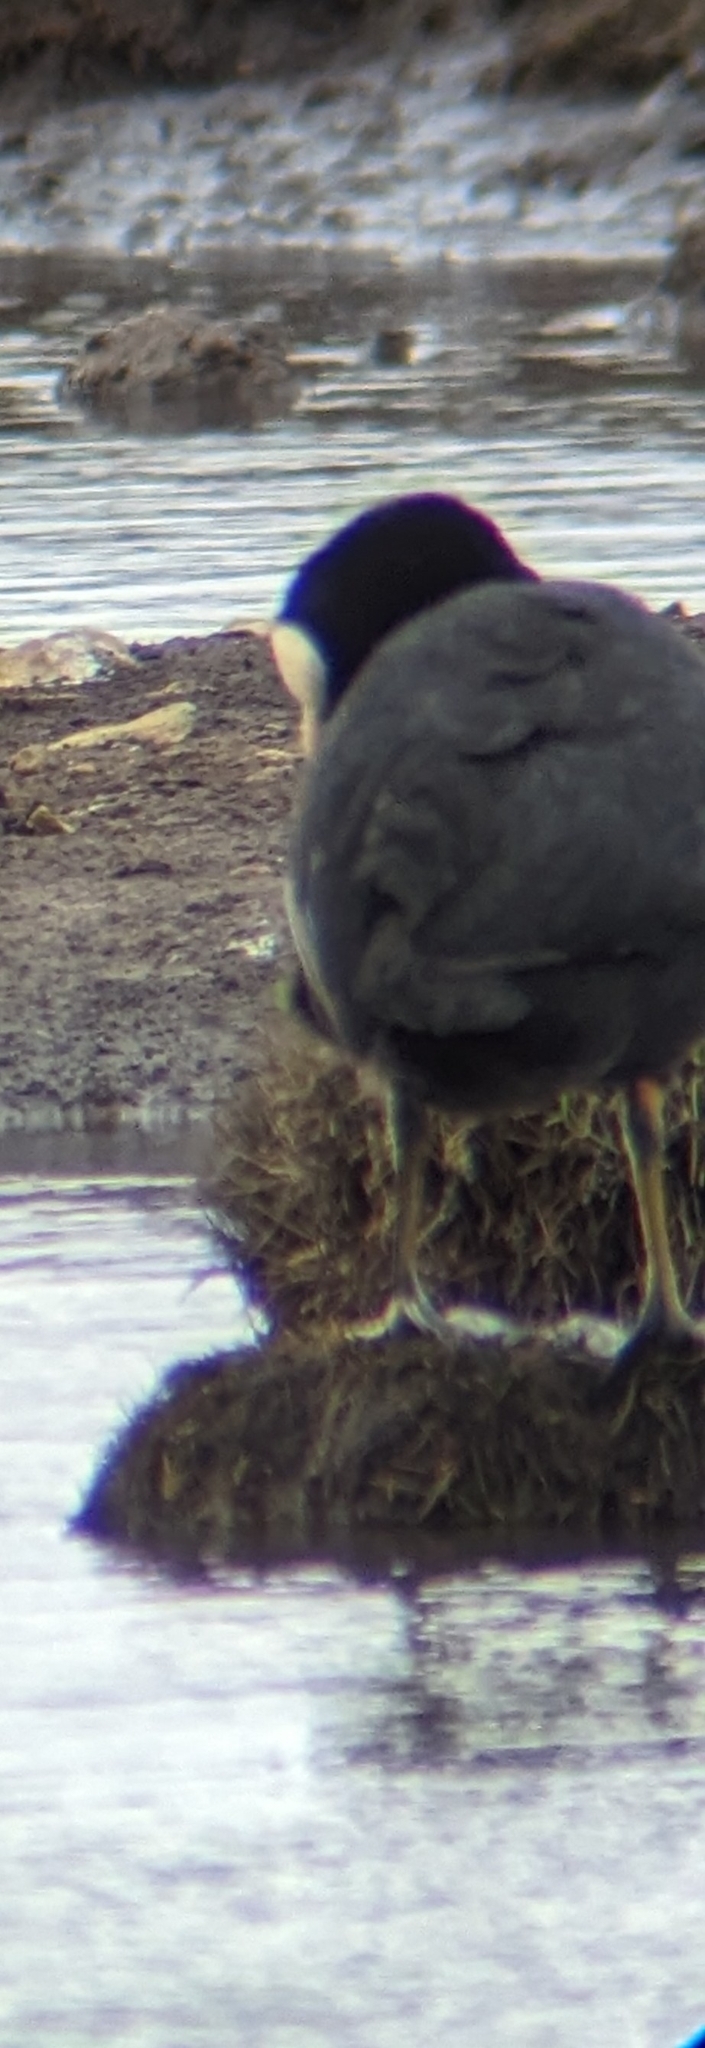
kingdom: Animalia
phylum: Chordata
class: Aves
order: Gruiformes
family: Rallidae
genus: Fulica
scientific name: Fulica atra
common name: Eurasian coot
